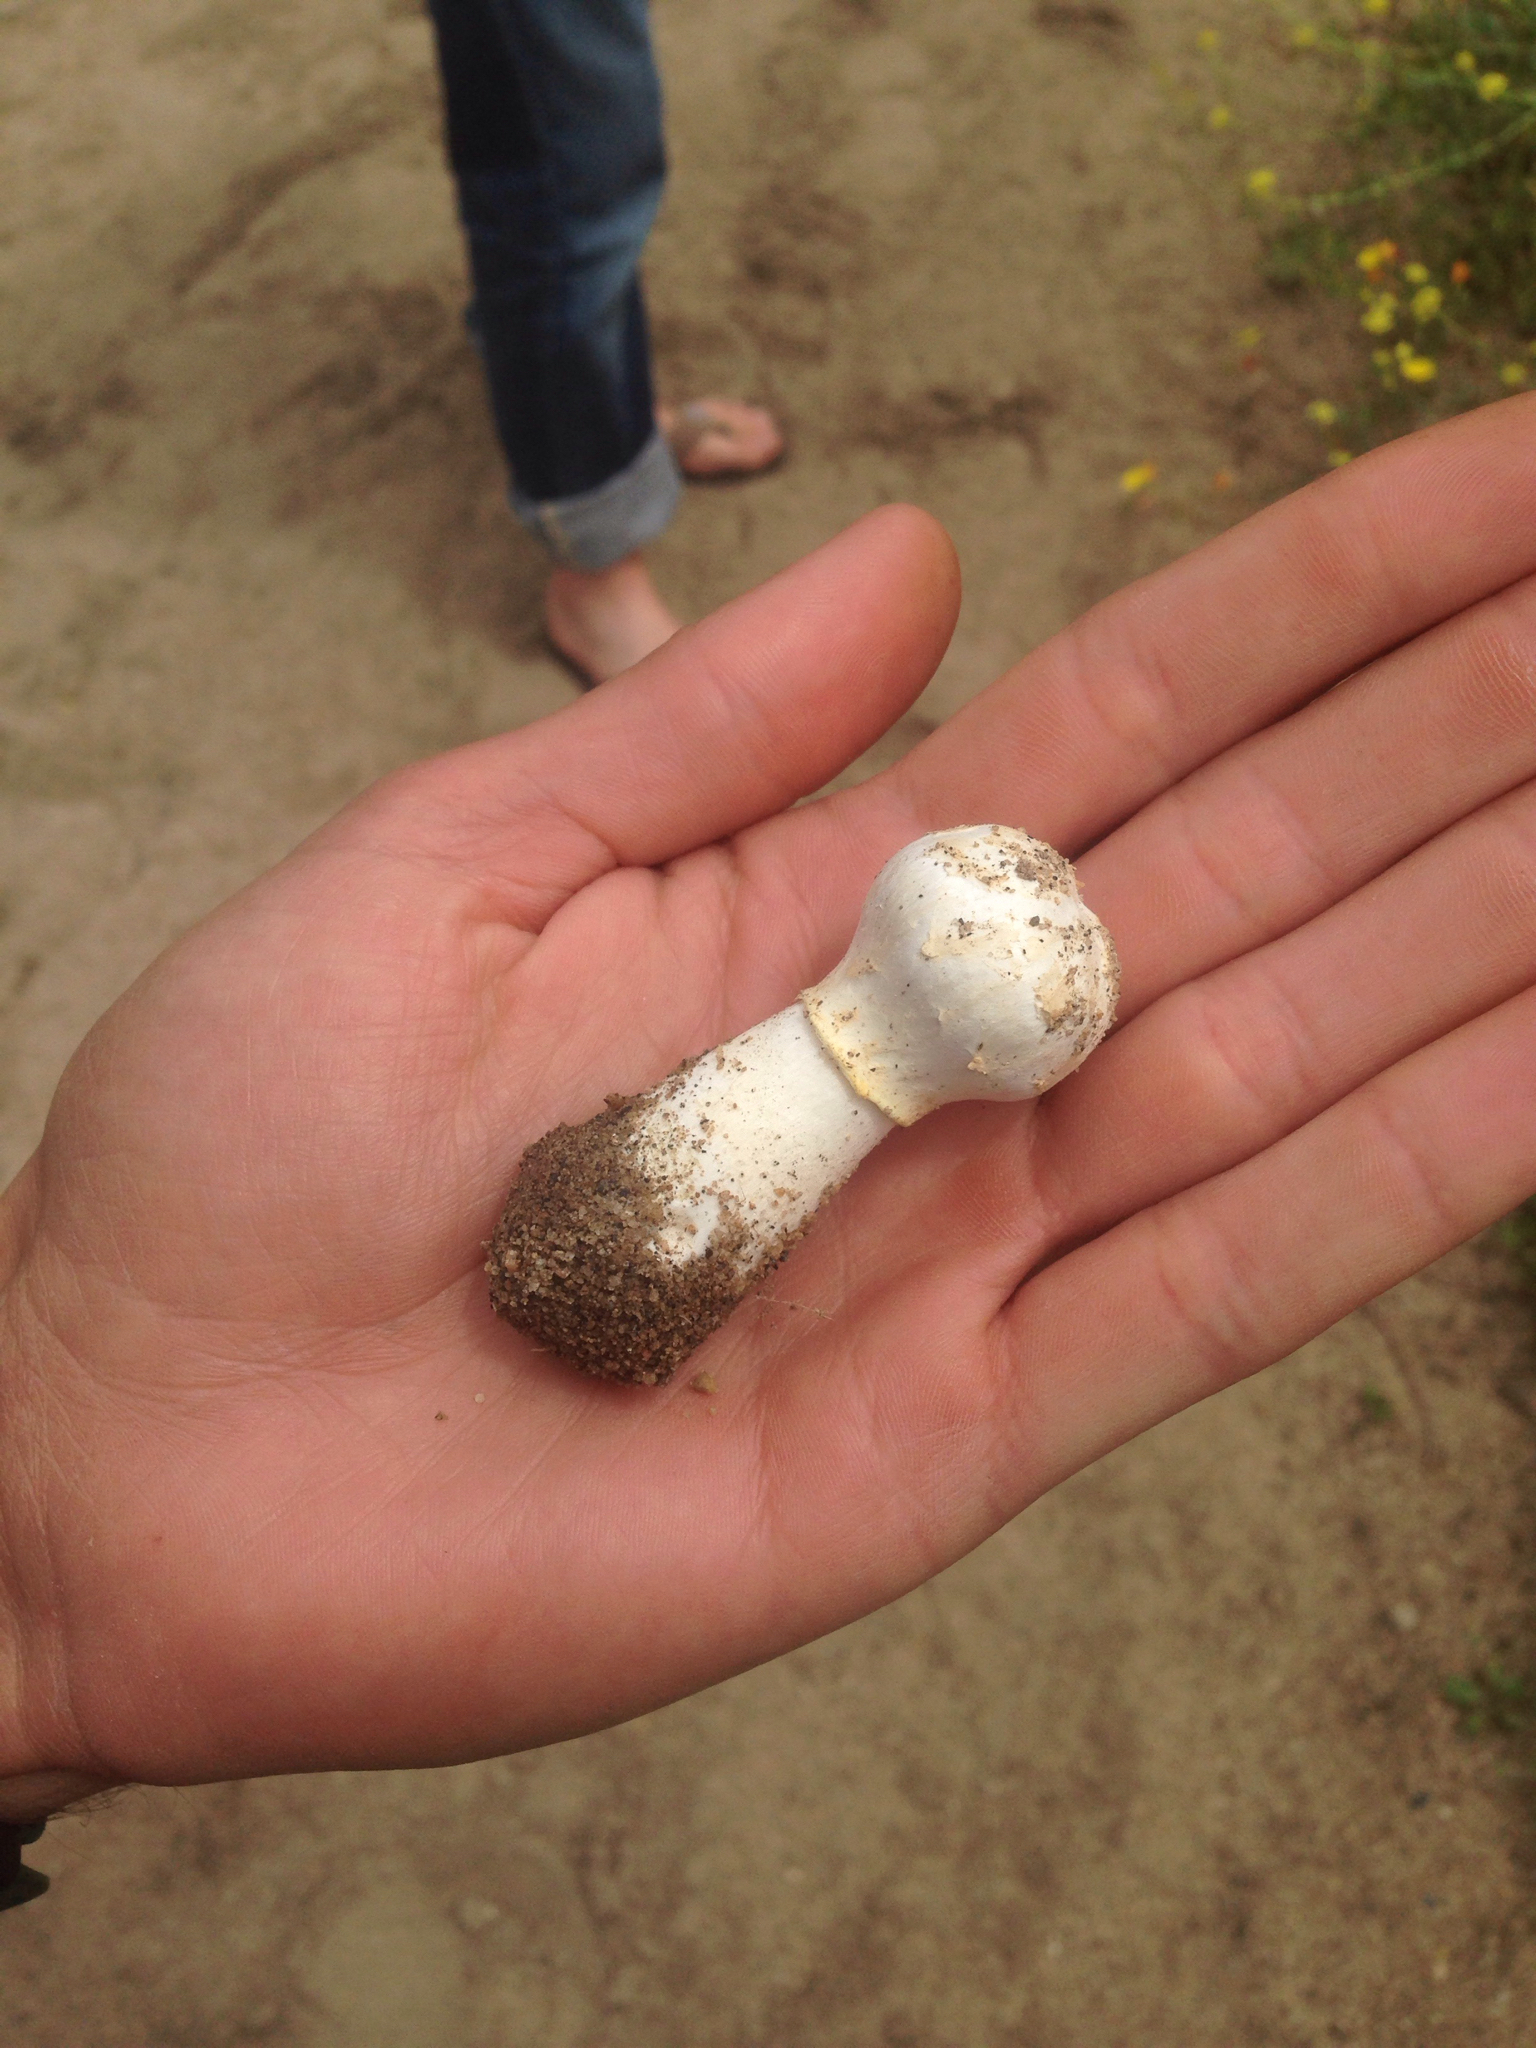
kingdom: Fungi
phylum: Basidiomycota
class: Agaricomycetes
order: Agaricales
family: Agaricaceae
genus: Agaricus
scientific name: Agaricus deserticola
